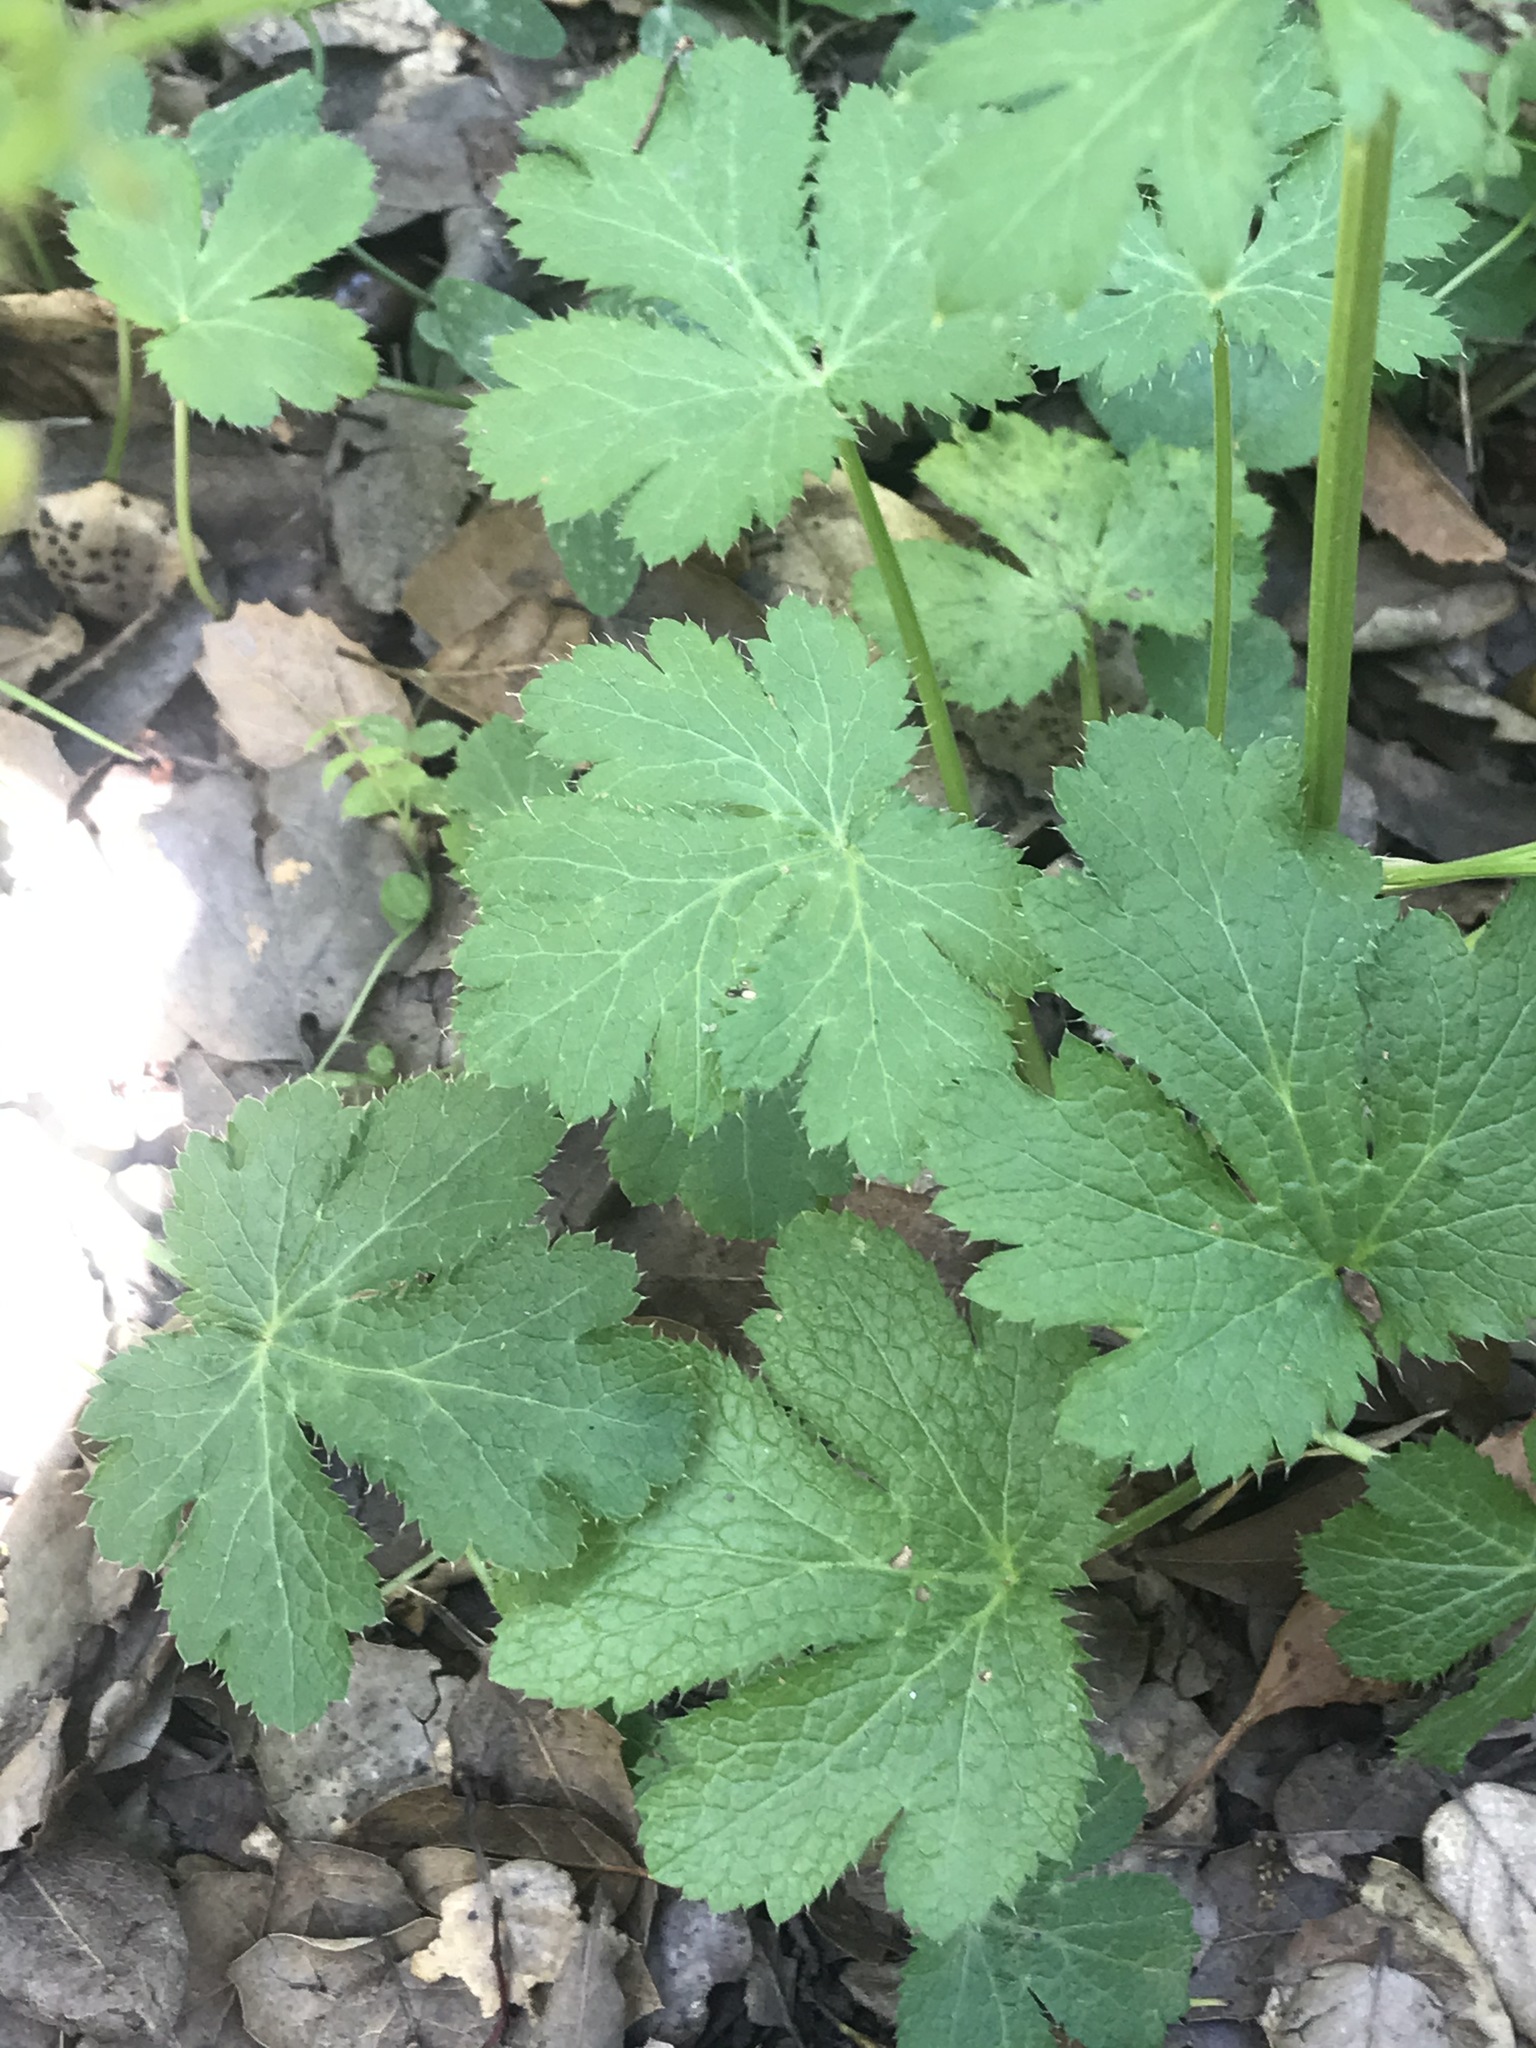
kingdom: Plantae
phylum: Tracheophyta
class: Magnoliopsida
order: Apiales
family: Apiaceae
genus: Sanicula
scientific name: Sanicula crassicaulis
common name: Western snakeroot
